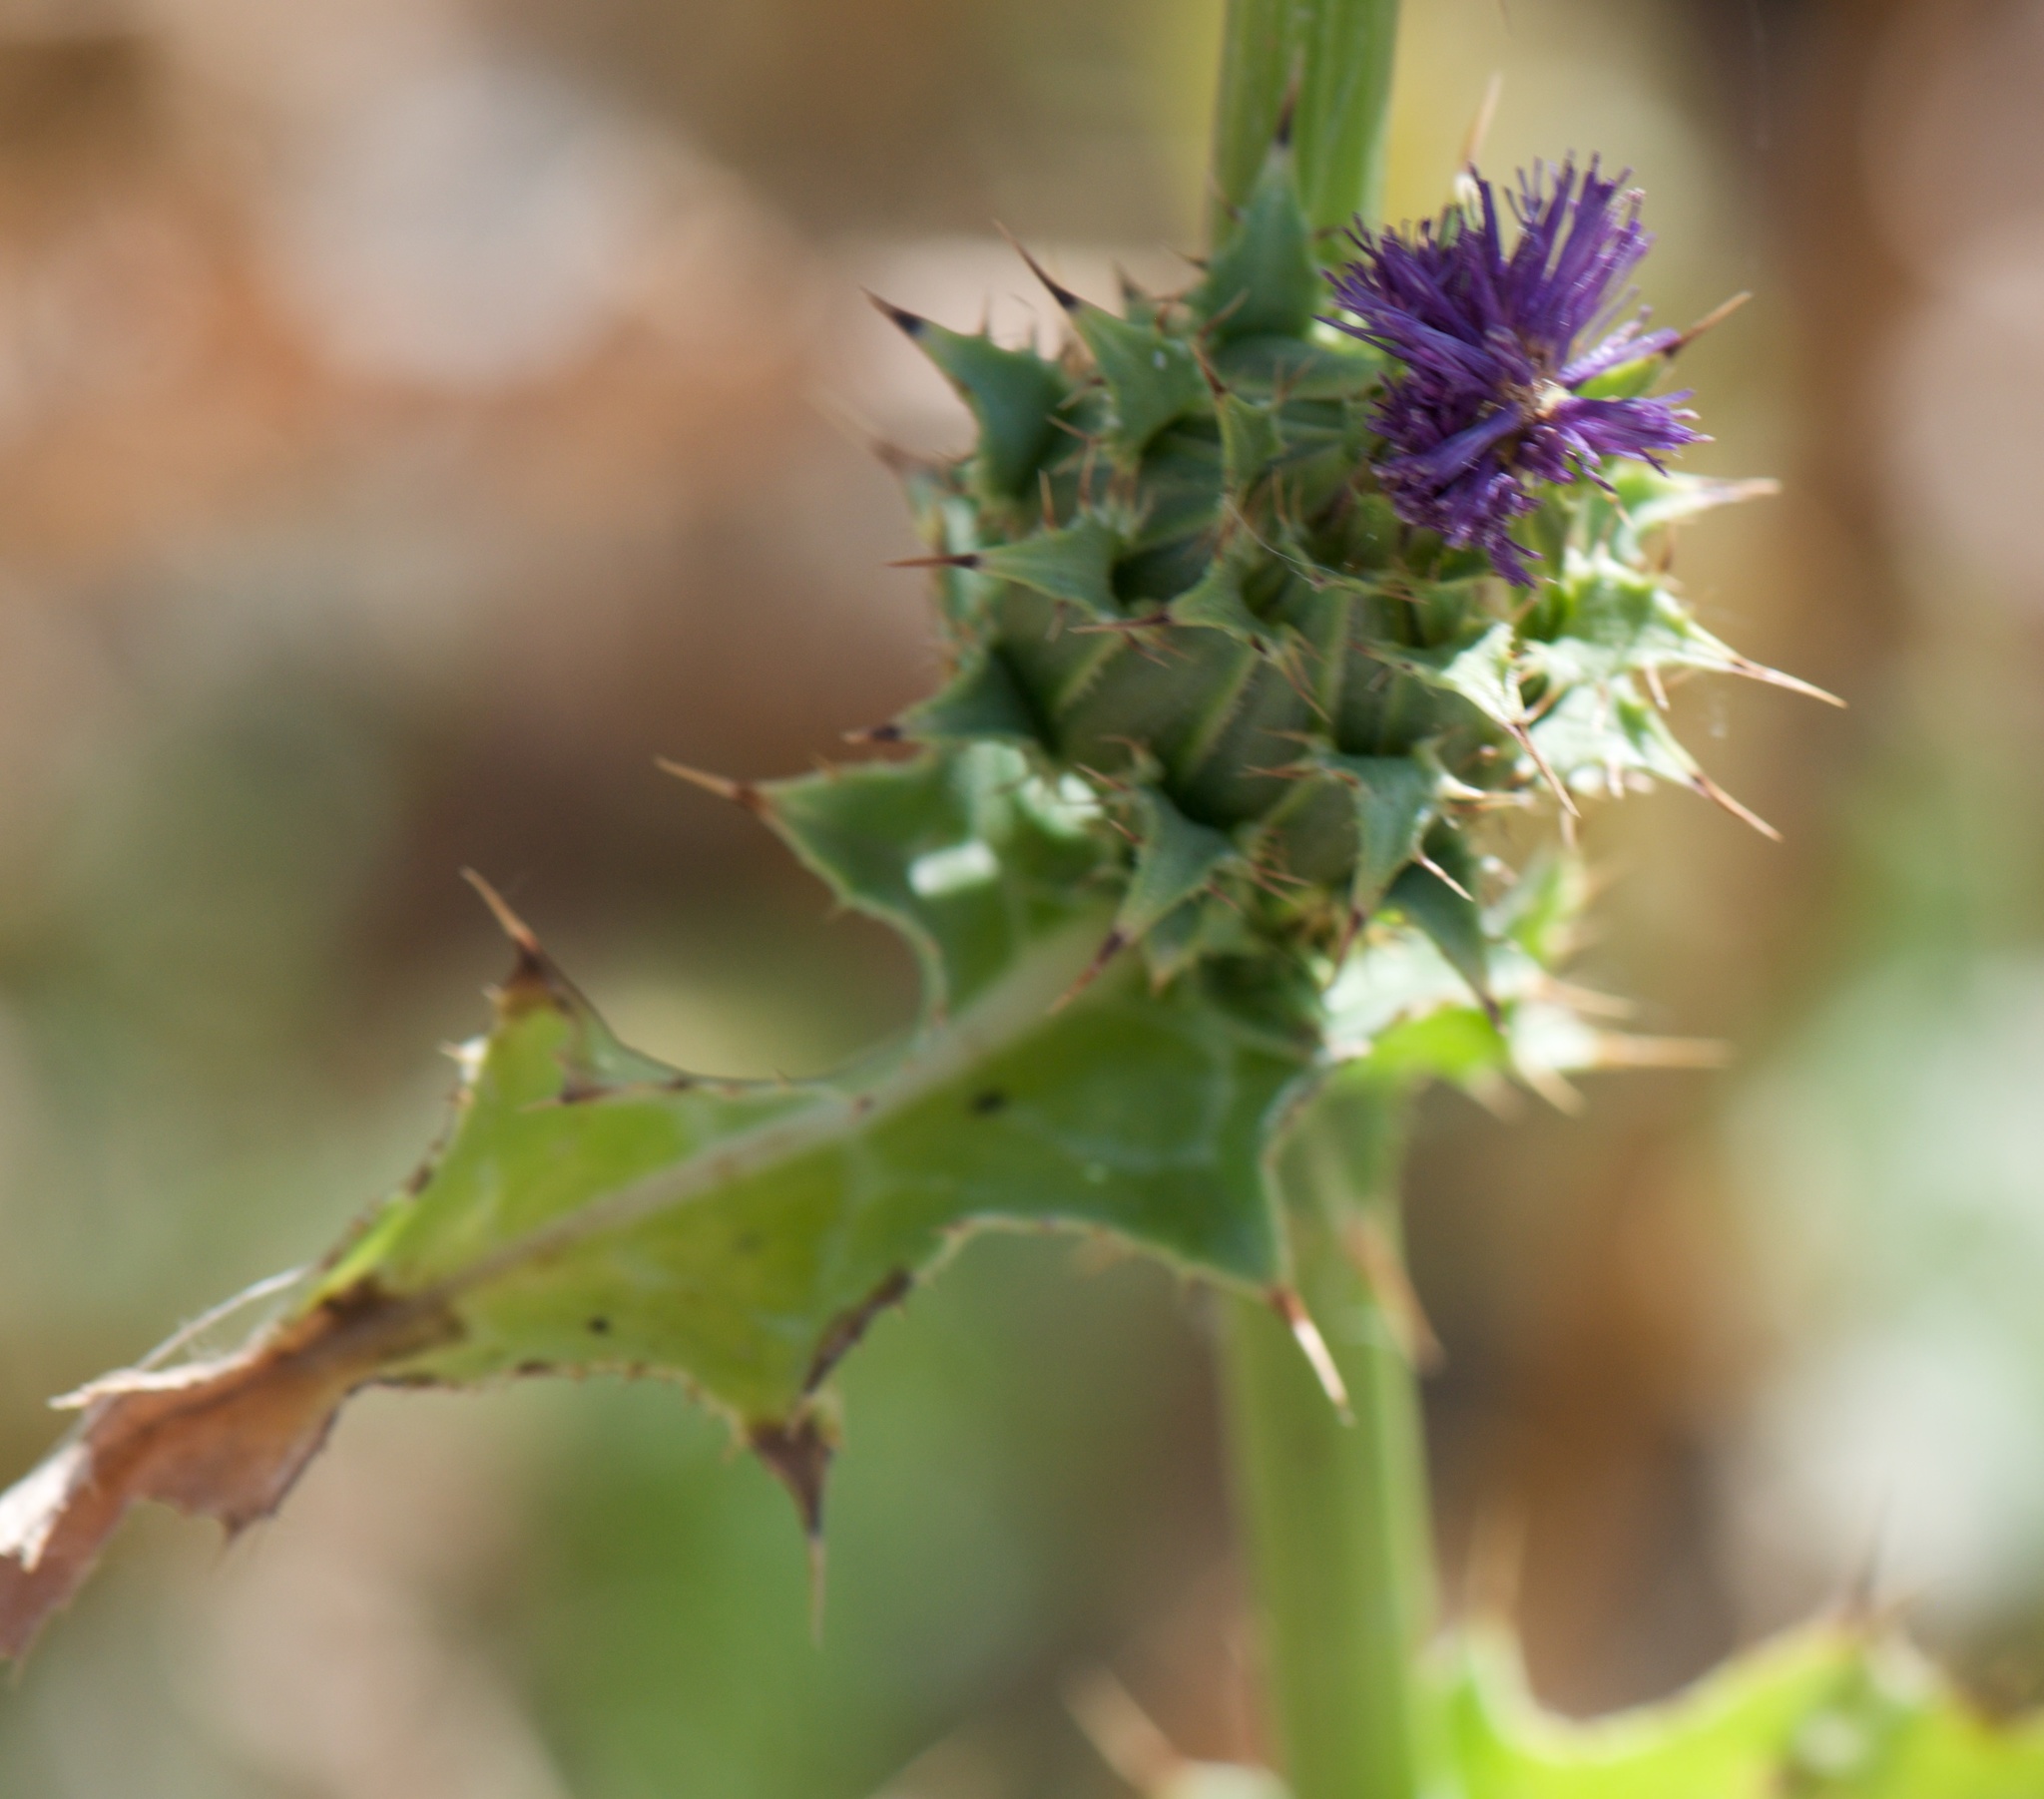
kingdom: Plantae
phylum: Tracheophyta
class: Magnoliopsida
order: Asterales
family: Asteraceae
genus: Silybum
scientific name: Silybum marianum
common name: Milk thistle
